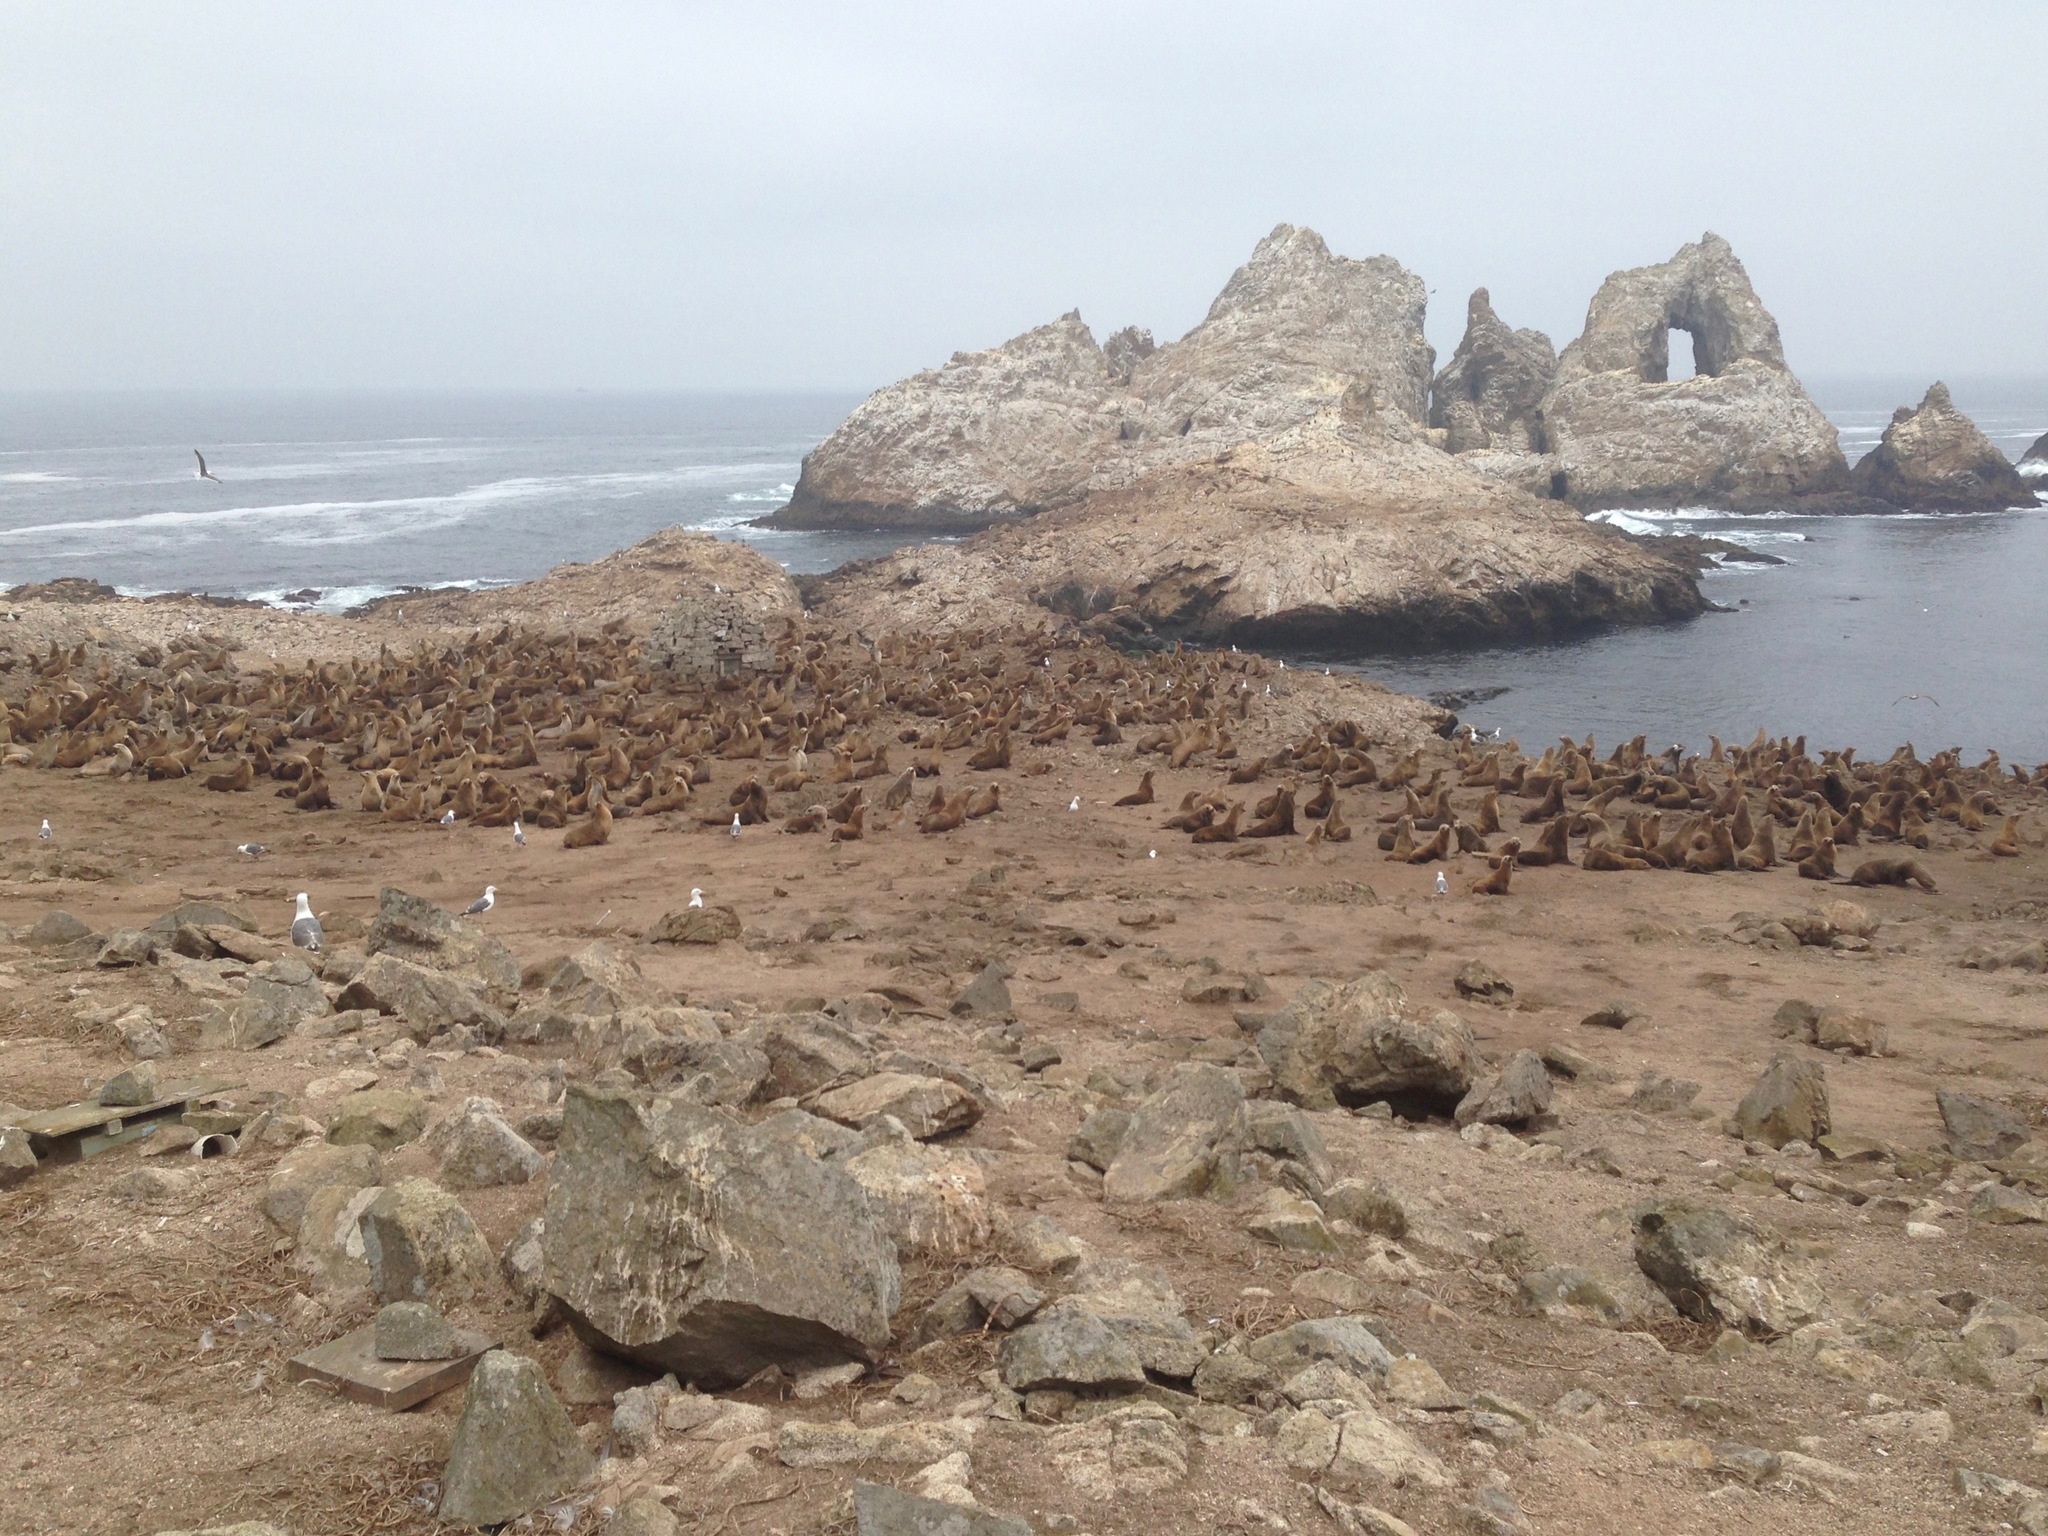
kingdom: Animalia
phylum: Chordata
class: Mammalia
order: Carnivora
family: Otariidae
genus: Zalophus
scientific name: Zalophus californianus
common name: California sea lion
